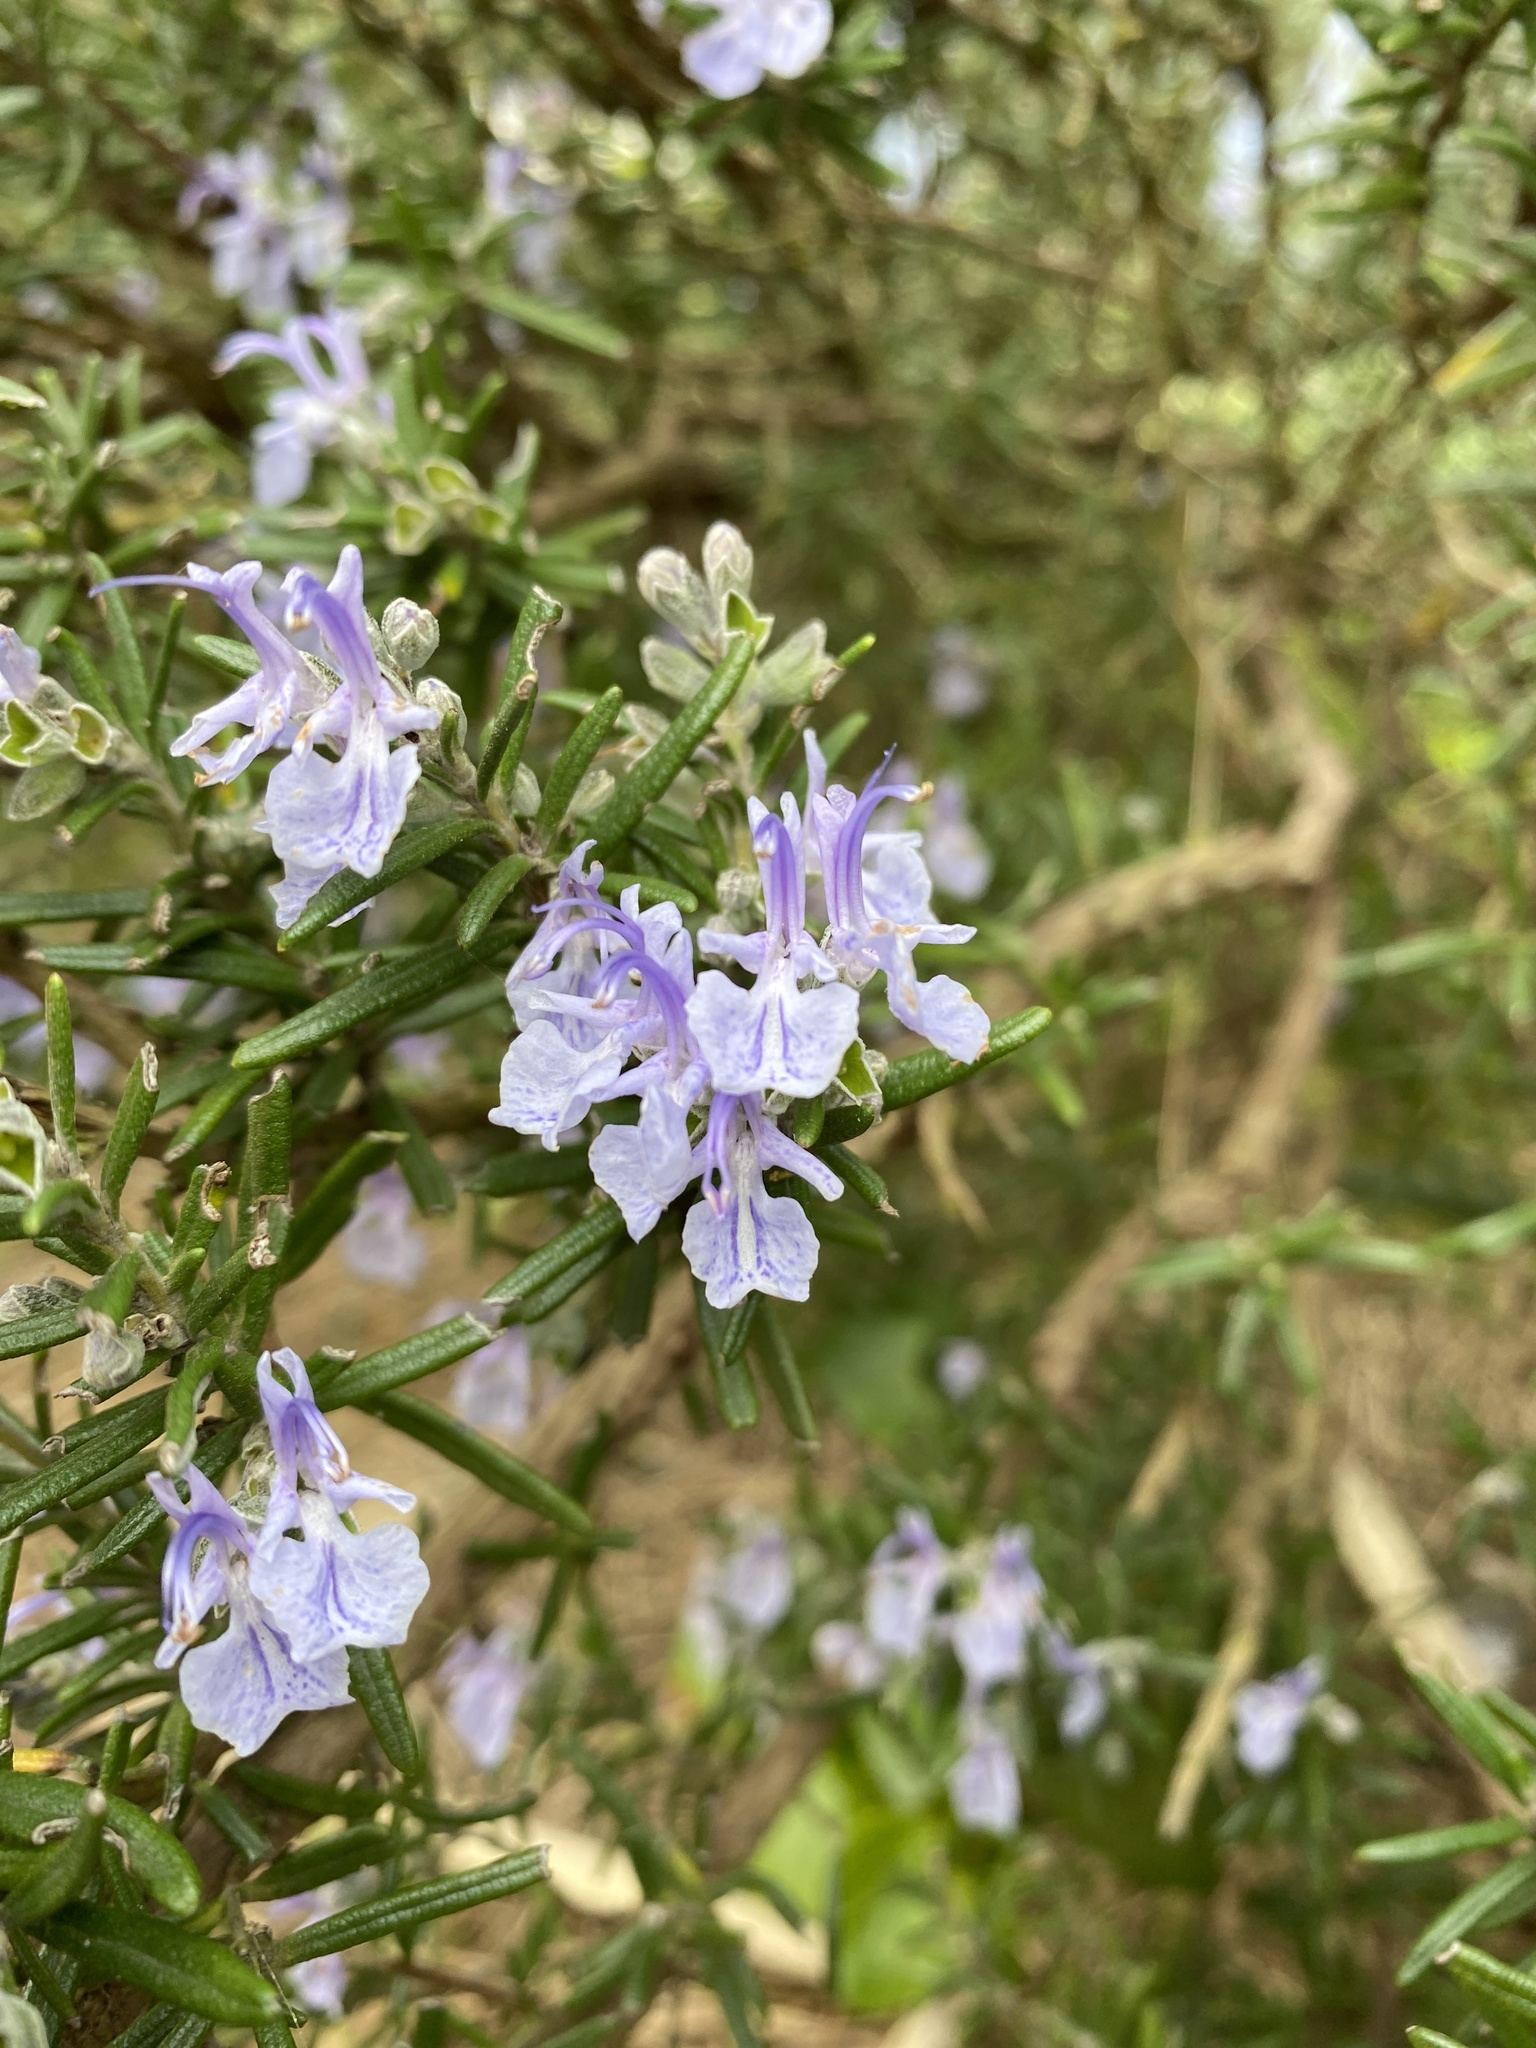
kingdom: Plantae
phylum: Tracheophyta
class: Magnoliopsida
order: Lamiales
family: Lamiaceae
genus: Salvia
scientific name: Salvia rosmarinus
